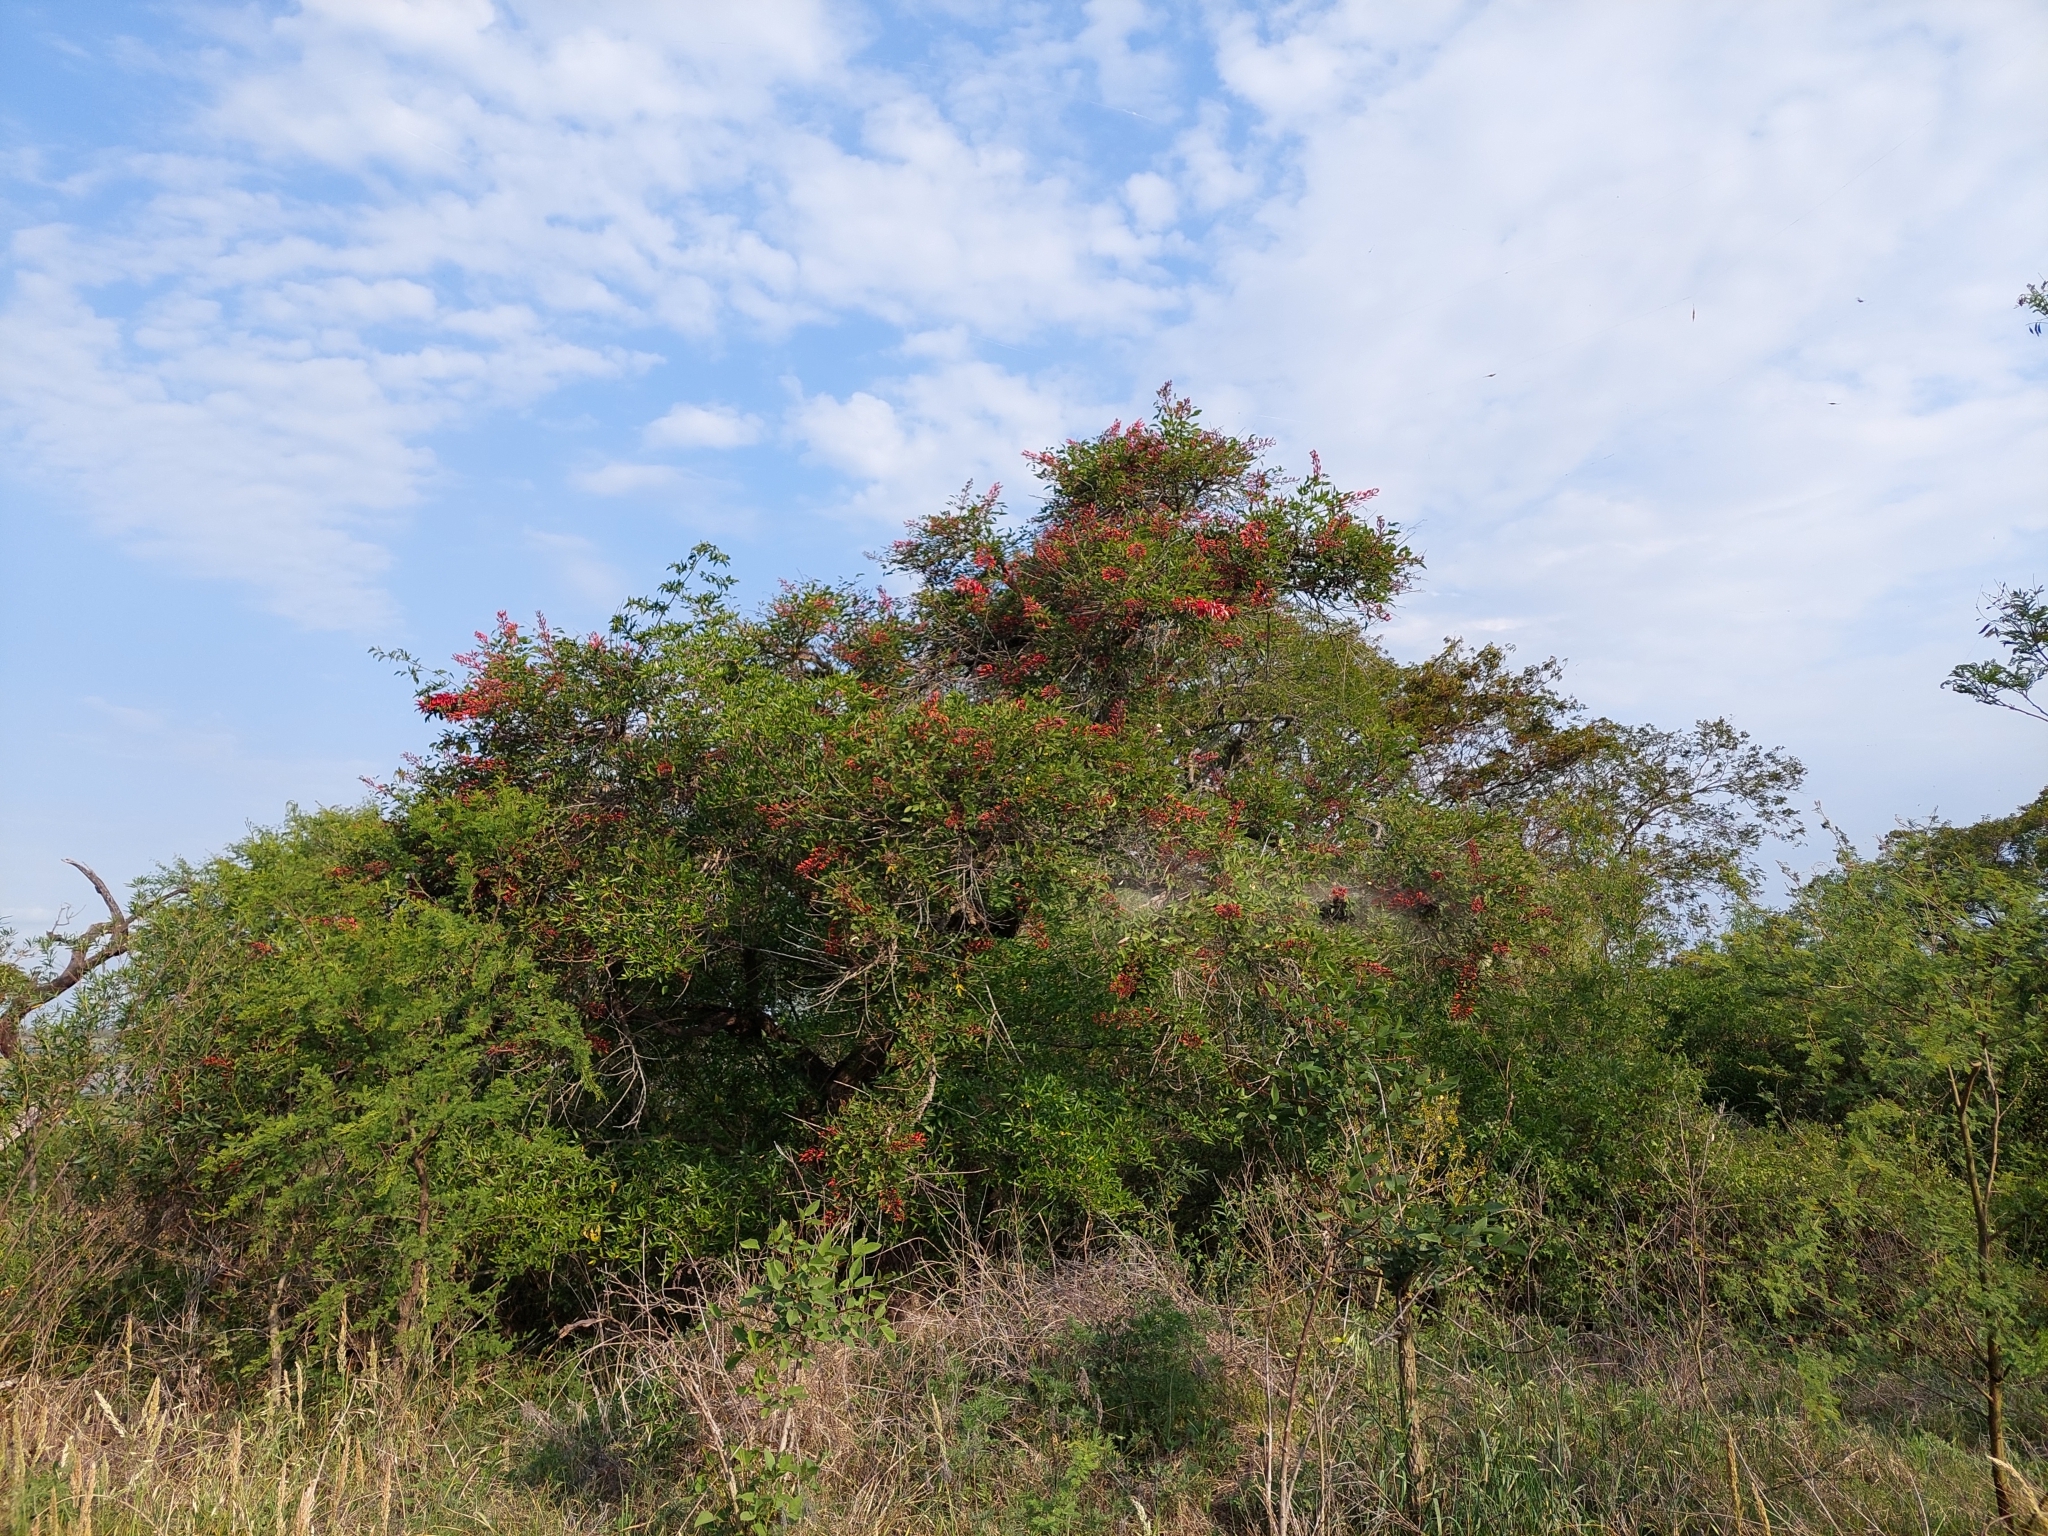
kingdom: Plantae
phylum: Tracheophyta
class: Magnoliopsida
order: Fabales
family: Fabaceae
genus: Erythrina
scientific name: Erythrina crista-galli
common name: Cockspur coral tree
